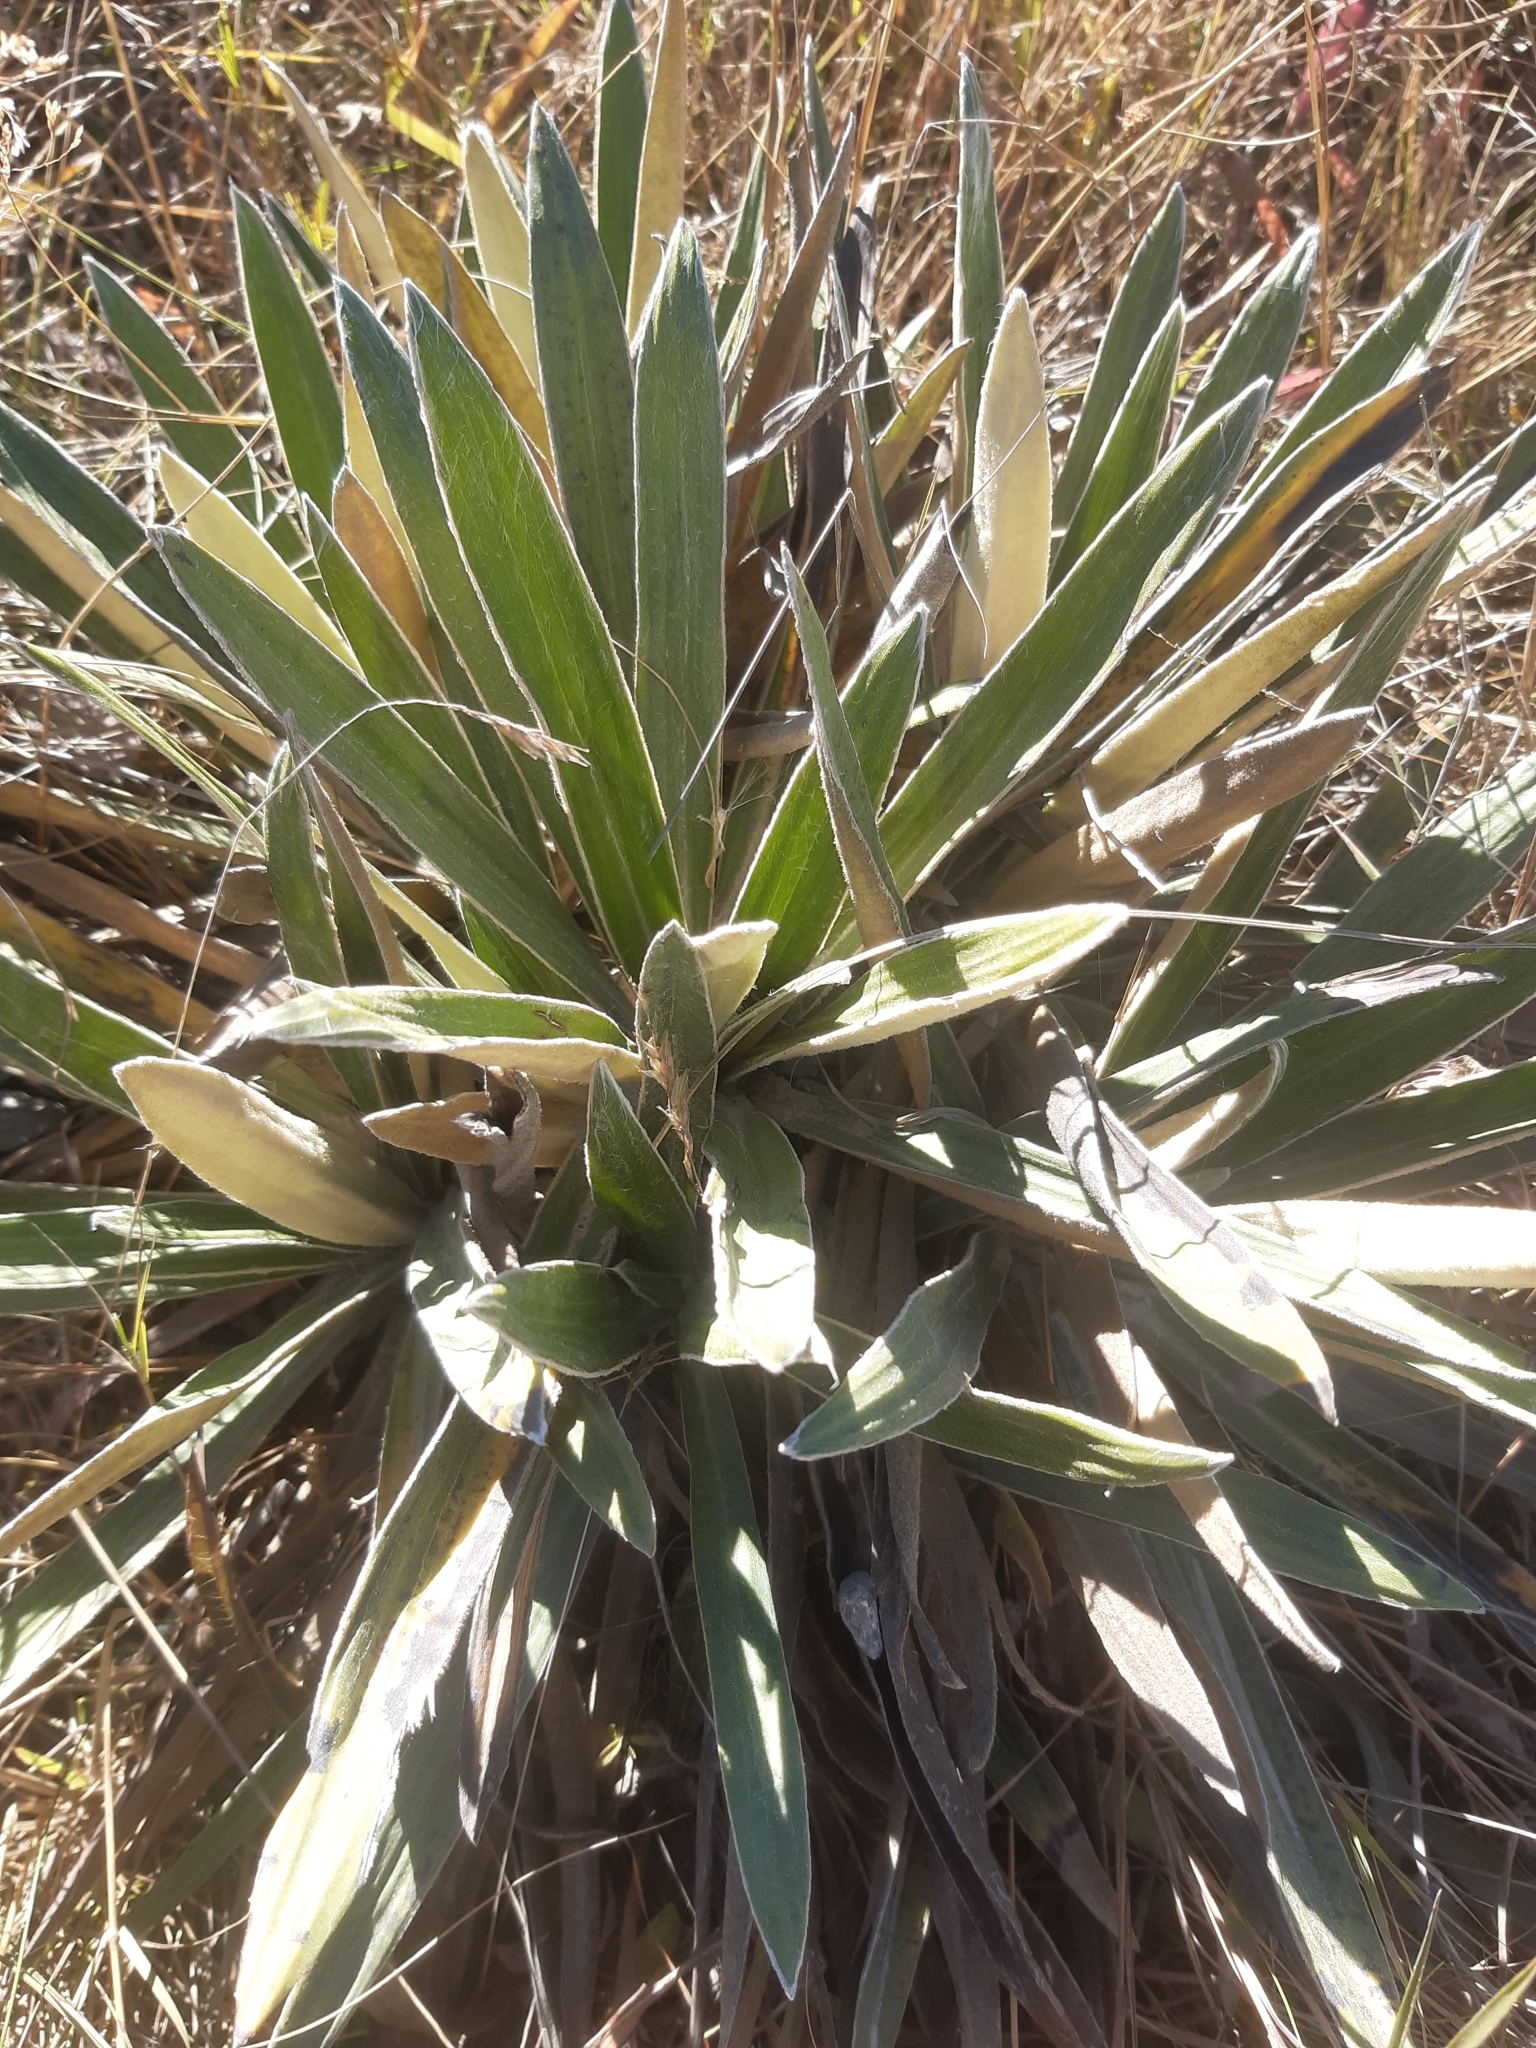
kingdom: Plantae
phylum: Tracheophyta
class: Magnoliopsida
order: Asterales
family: Asteraceae
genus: Celmisia
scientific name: Celmisia spectabilis
